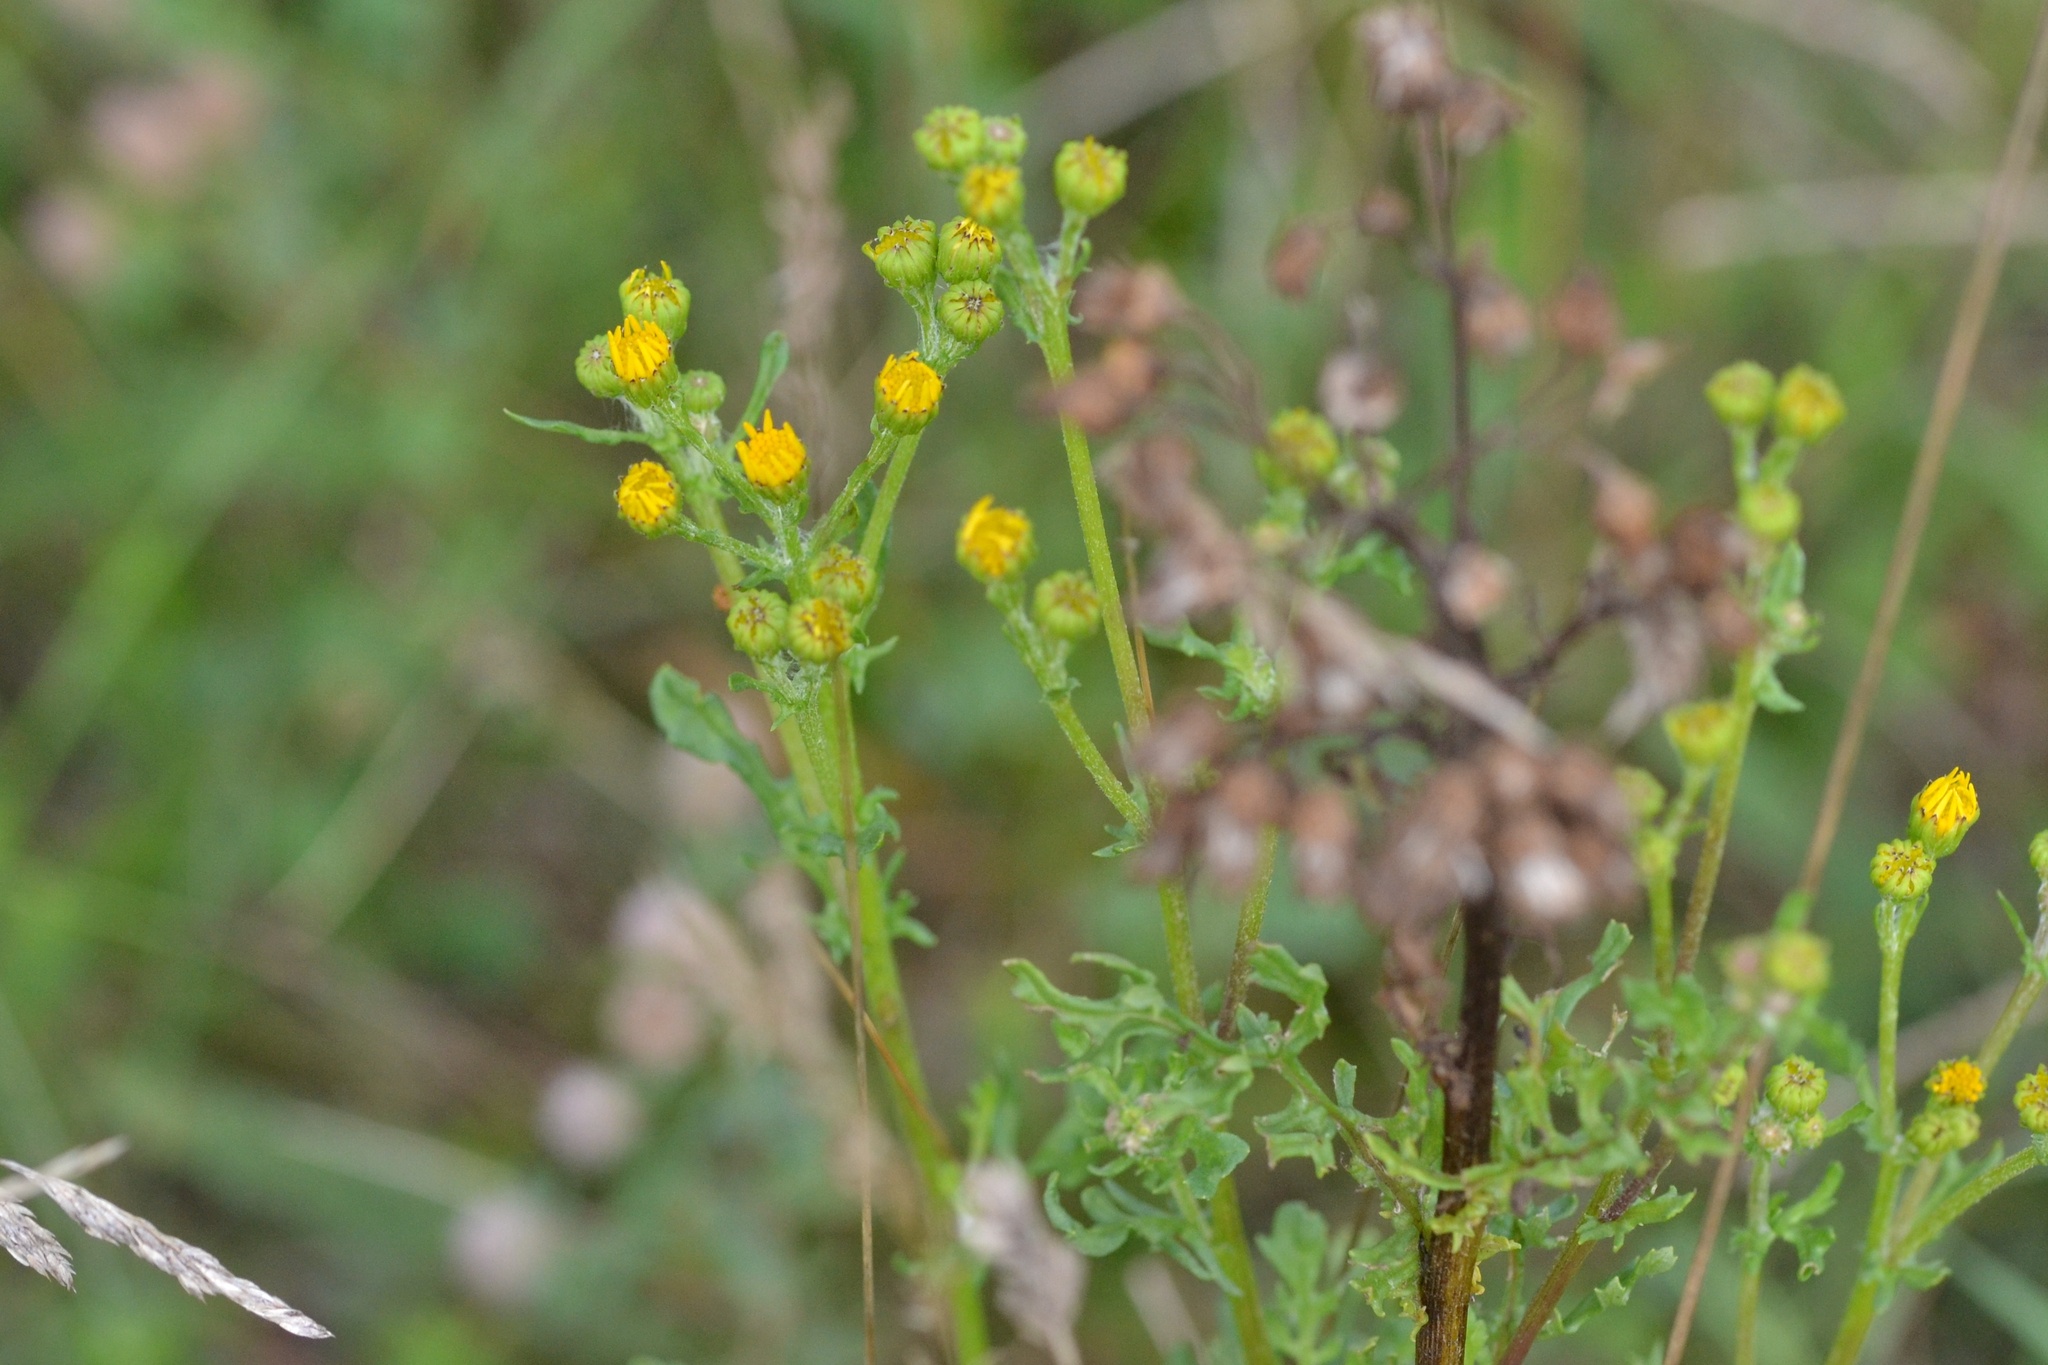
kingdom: Plantae
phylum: Tracheophyta
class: Magnoliopsida
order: Asterales
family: Asteraceae
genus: Jacobaea
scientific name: Jacobaea vulgaris
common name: Stinking willie
